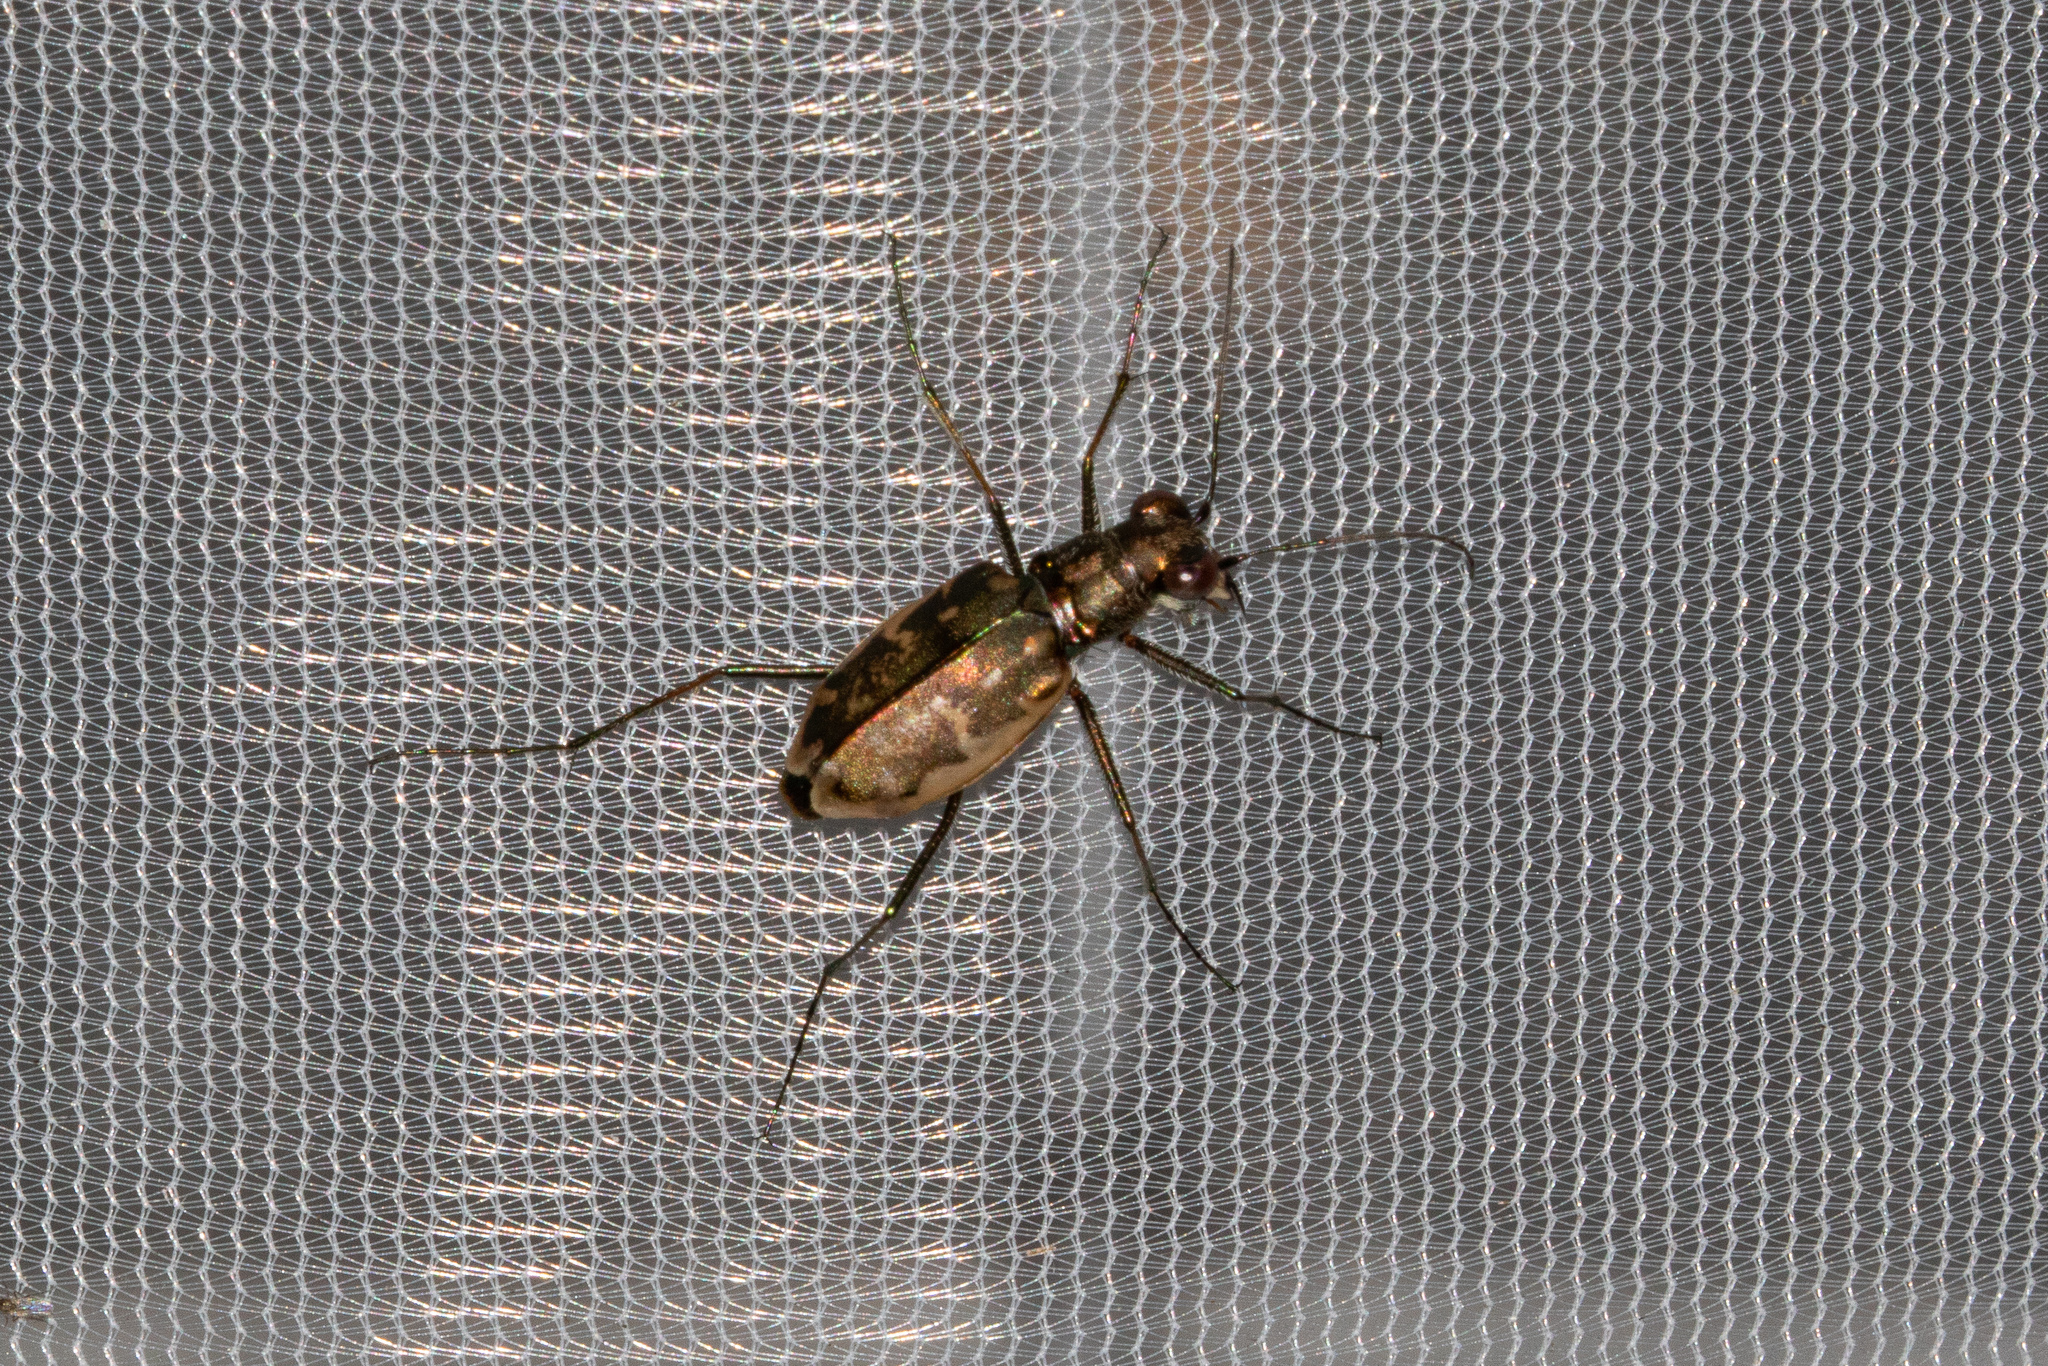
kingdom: Animalia
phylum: Arthropoda
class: Insecta
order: Coleoptera
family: Carabidae
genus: Ellipsoptera
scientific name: Ellipsoptera marginata
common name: Margined tiger beetle
